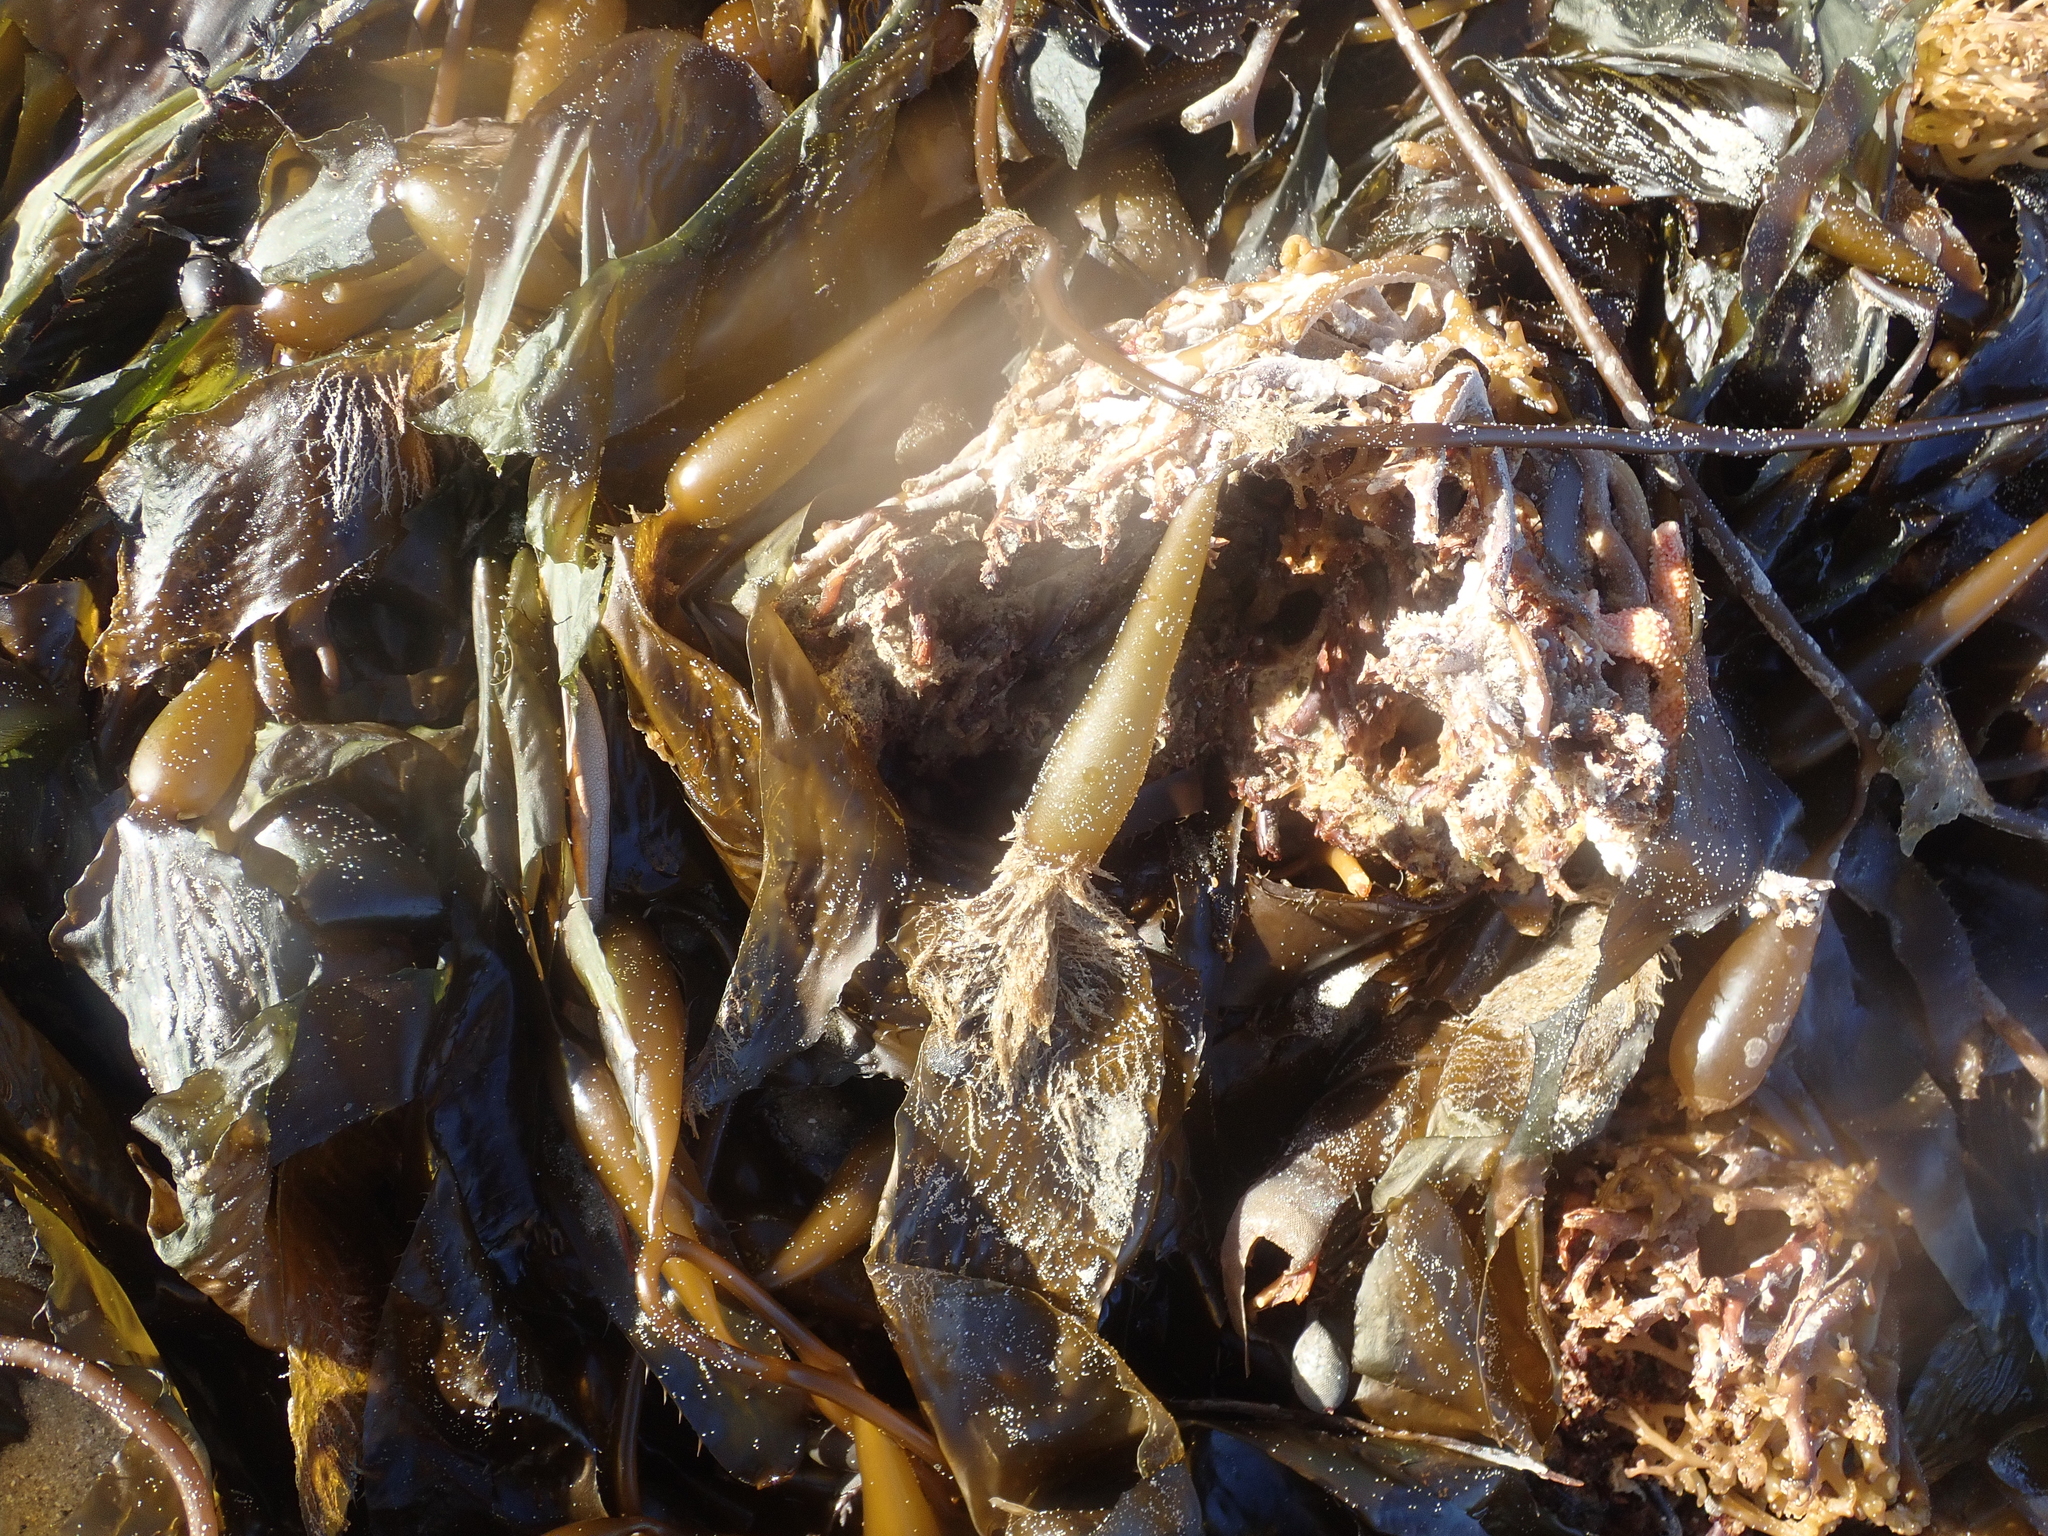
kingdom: Chromista
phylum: Ochrophyta
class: Phaeophyceae
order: Laminariales
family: Laminariaceae
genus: Macrocystis
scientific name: Macrocystis pyrifera
